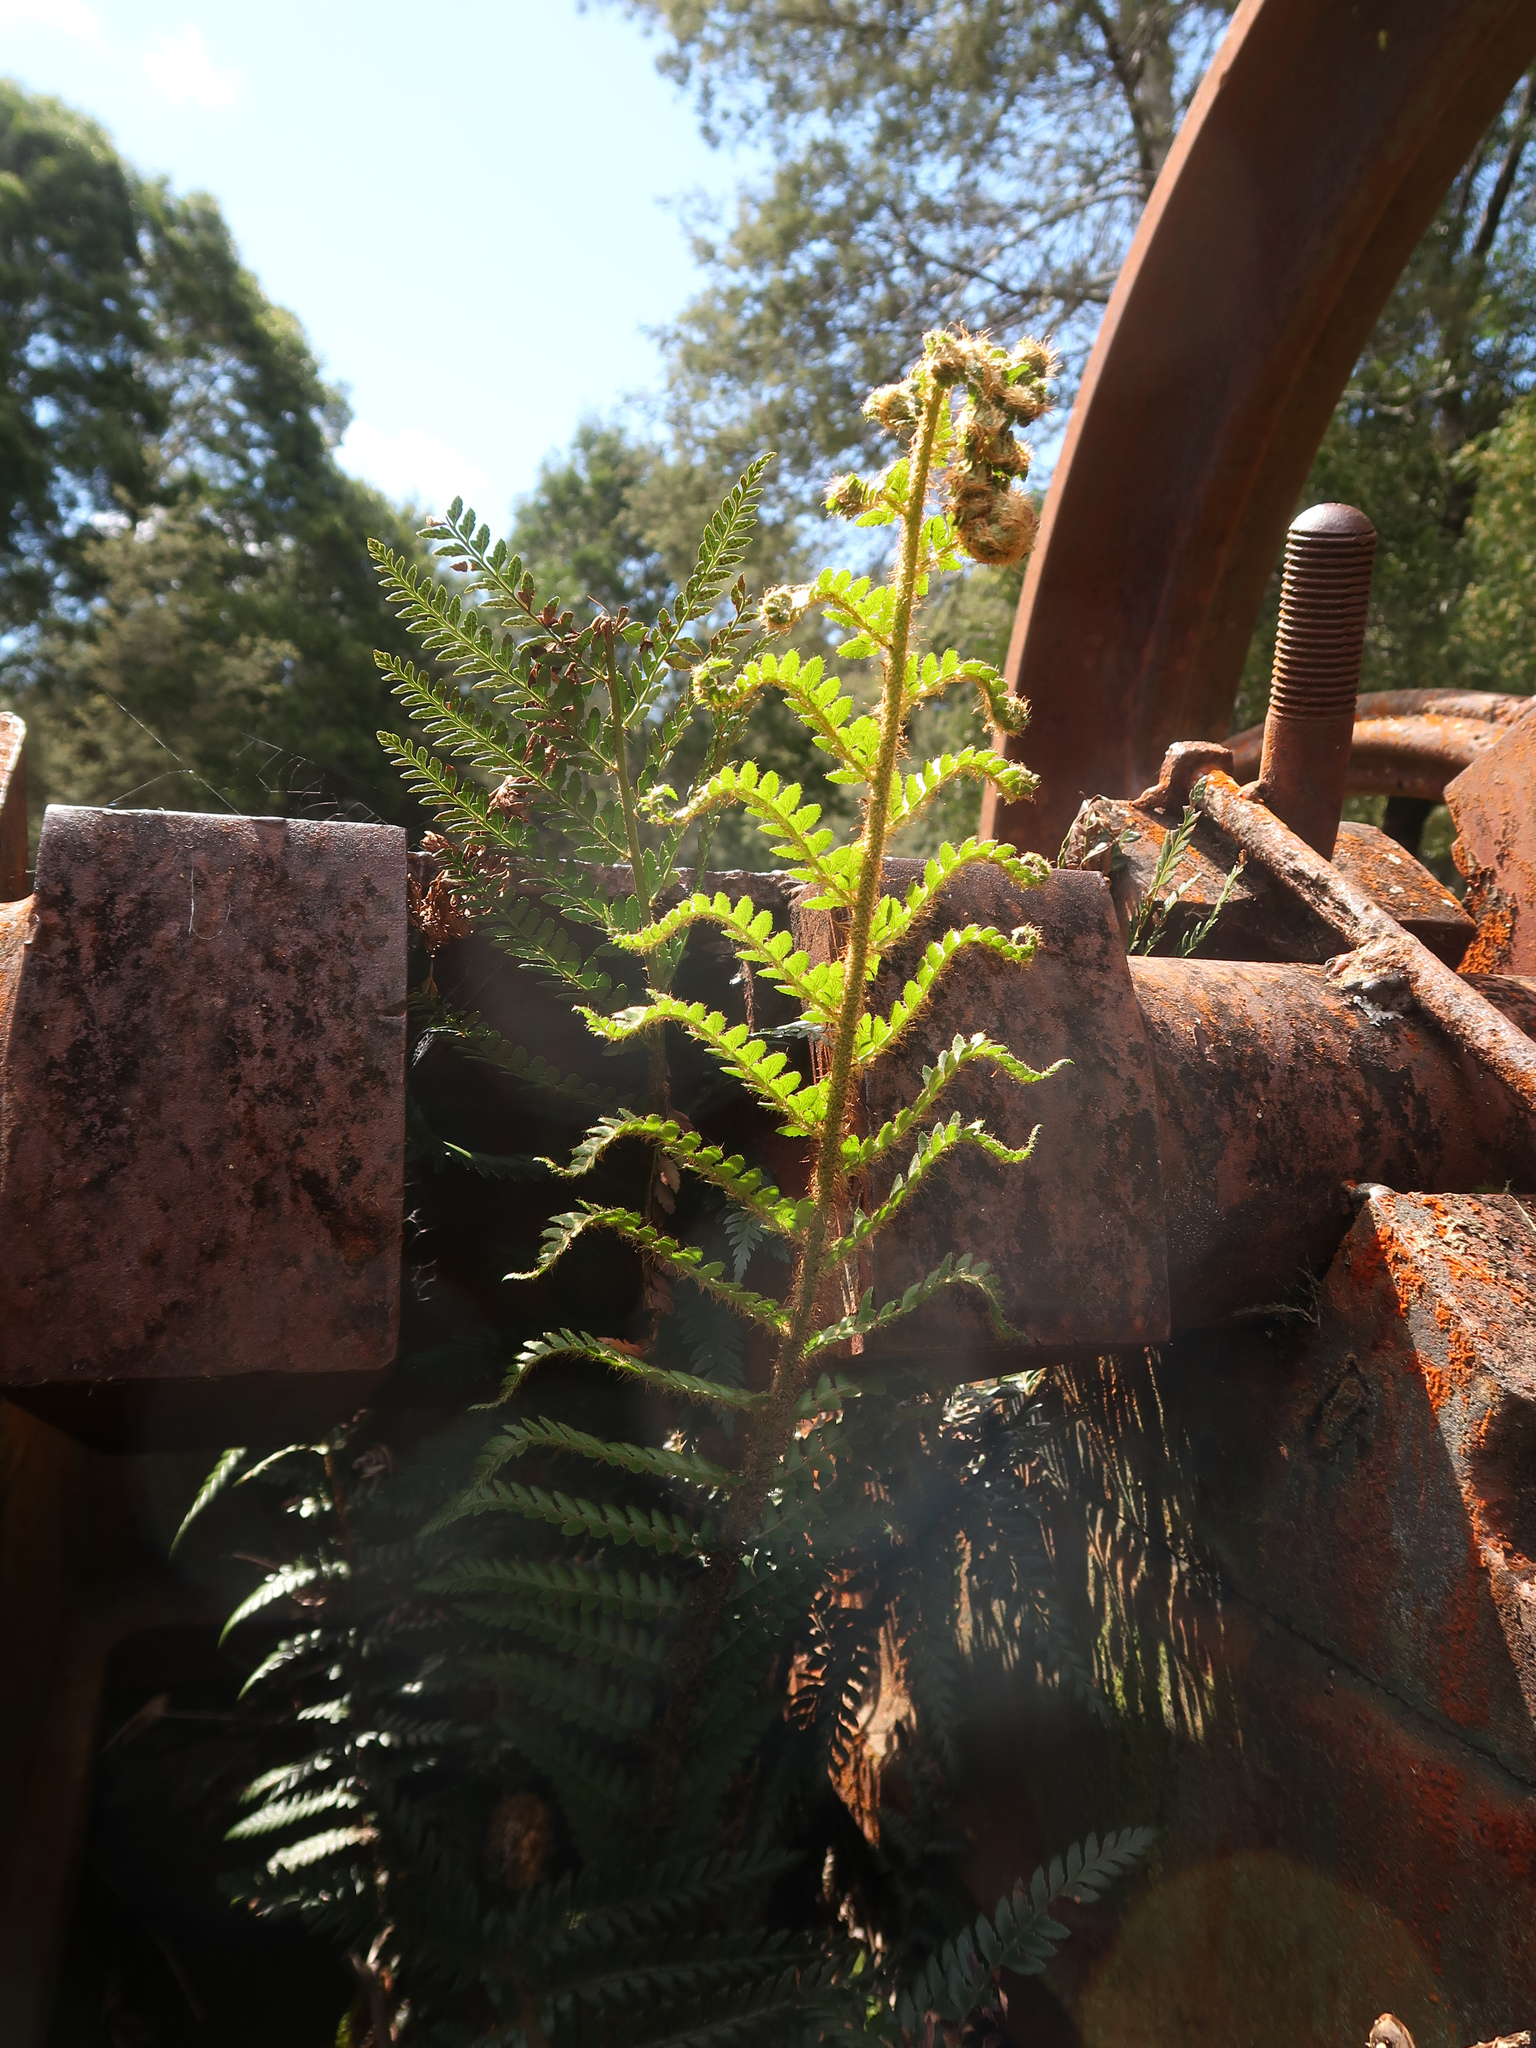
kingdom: Plantae
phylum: Tracheophyta
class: Polypodiopsida
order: Polypodiales
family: Dryopteridaceae
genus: Polystichum
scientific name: Polystichum proliferum
